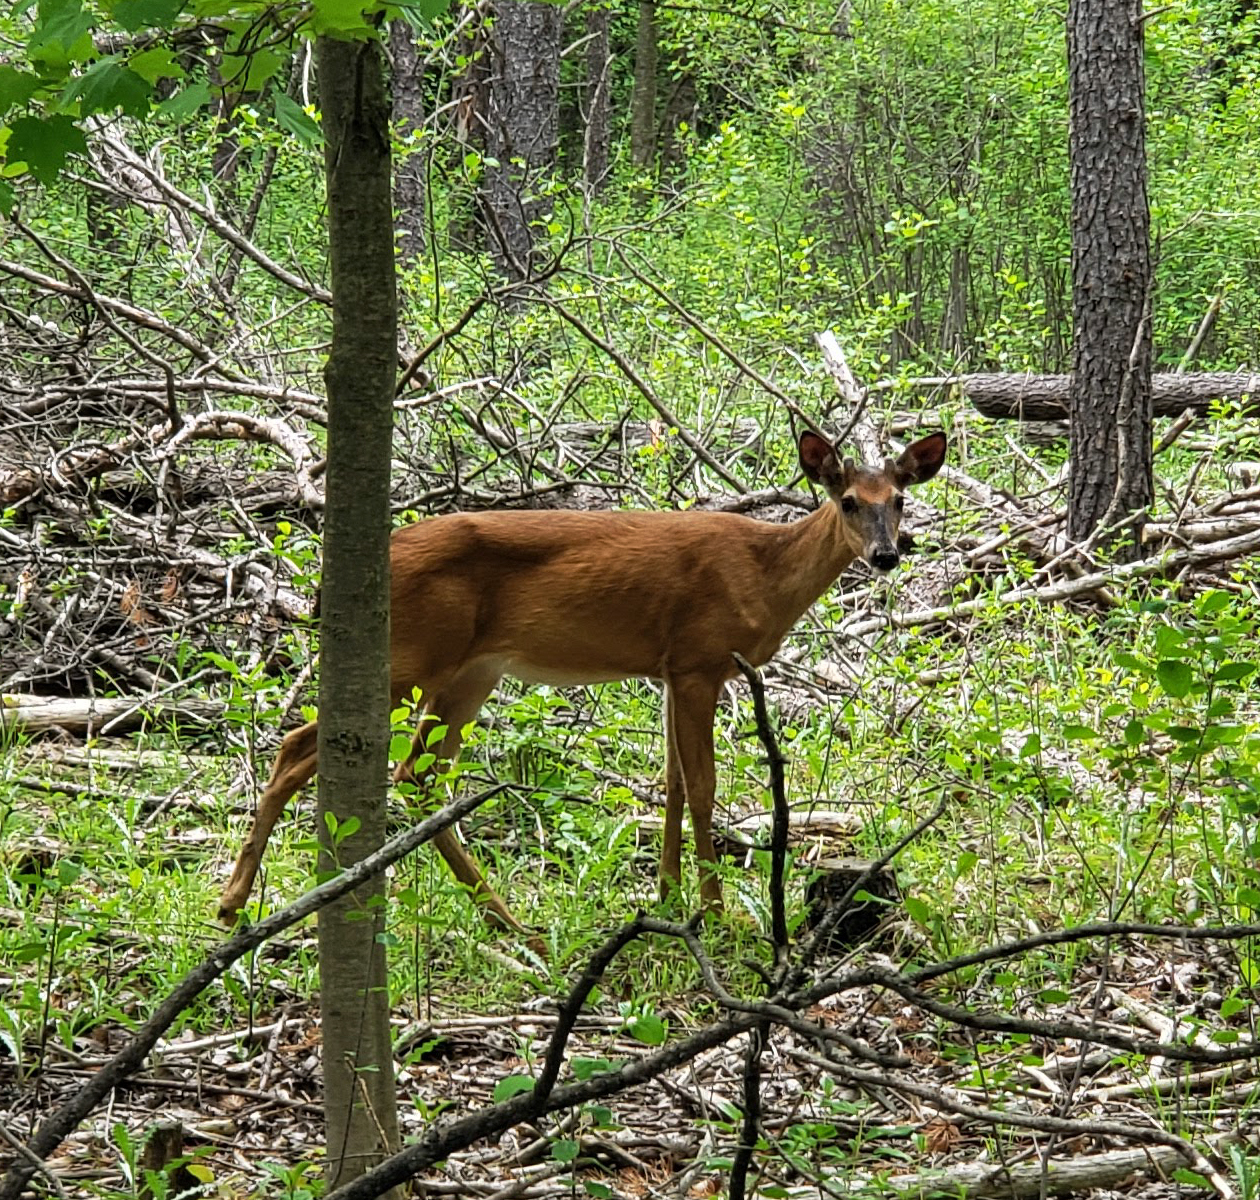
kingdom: Animalia
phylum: Chordata
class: Mammalia
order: Artiodactyla
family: Cervidae
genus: Odocoileus
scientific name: Odocoileus virginianus
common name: White-tailed deer
